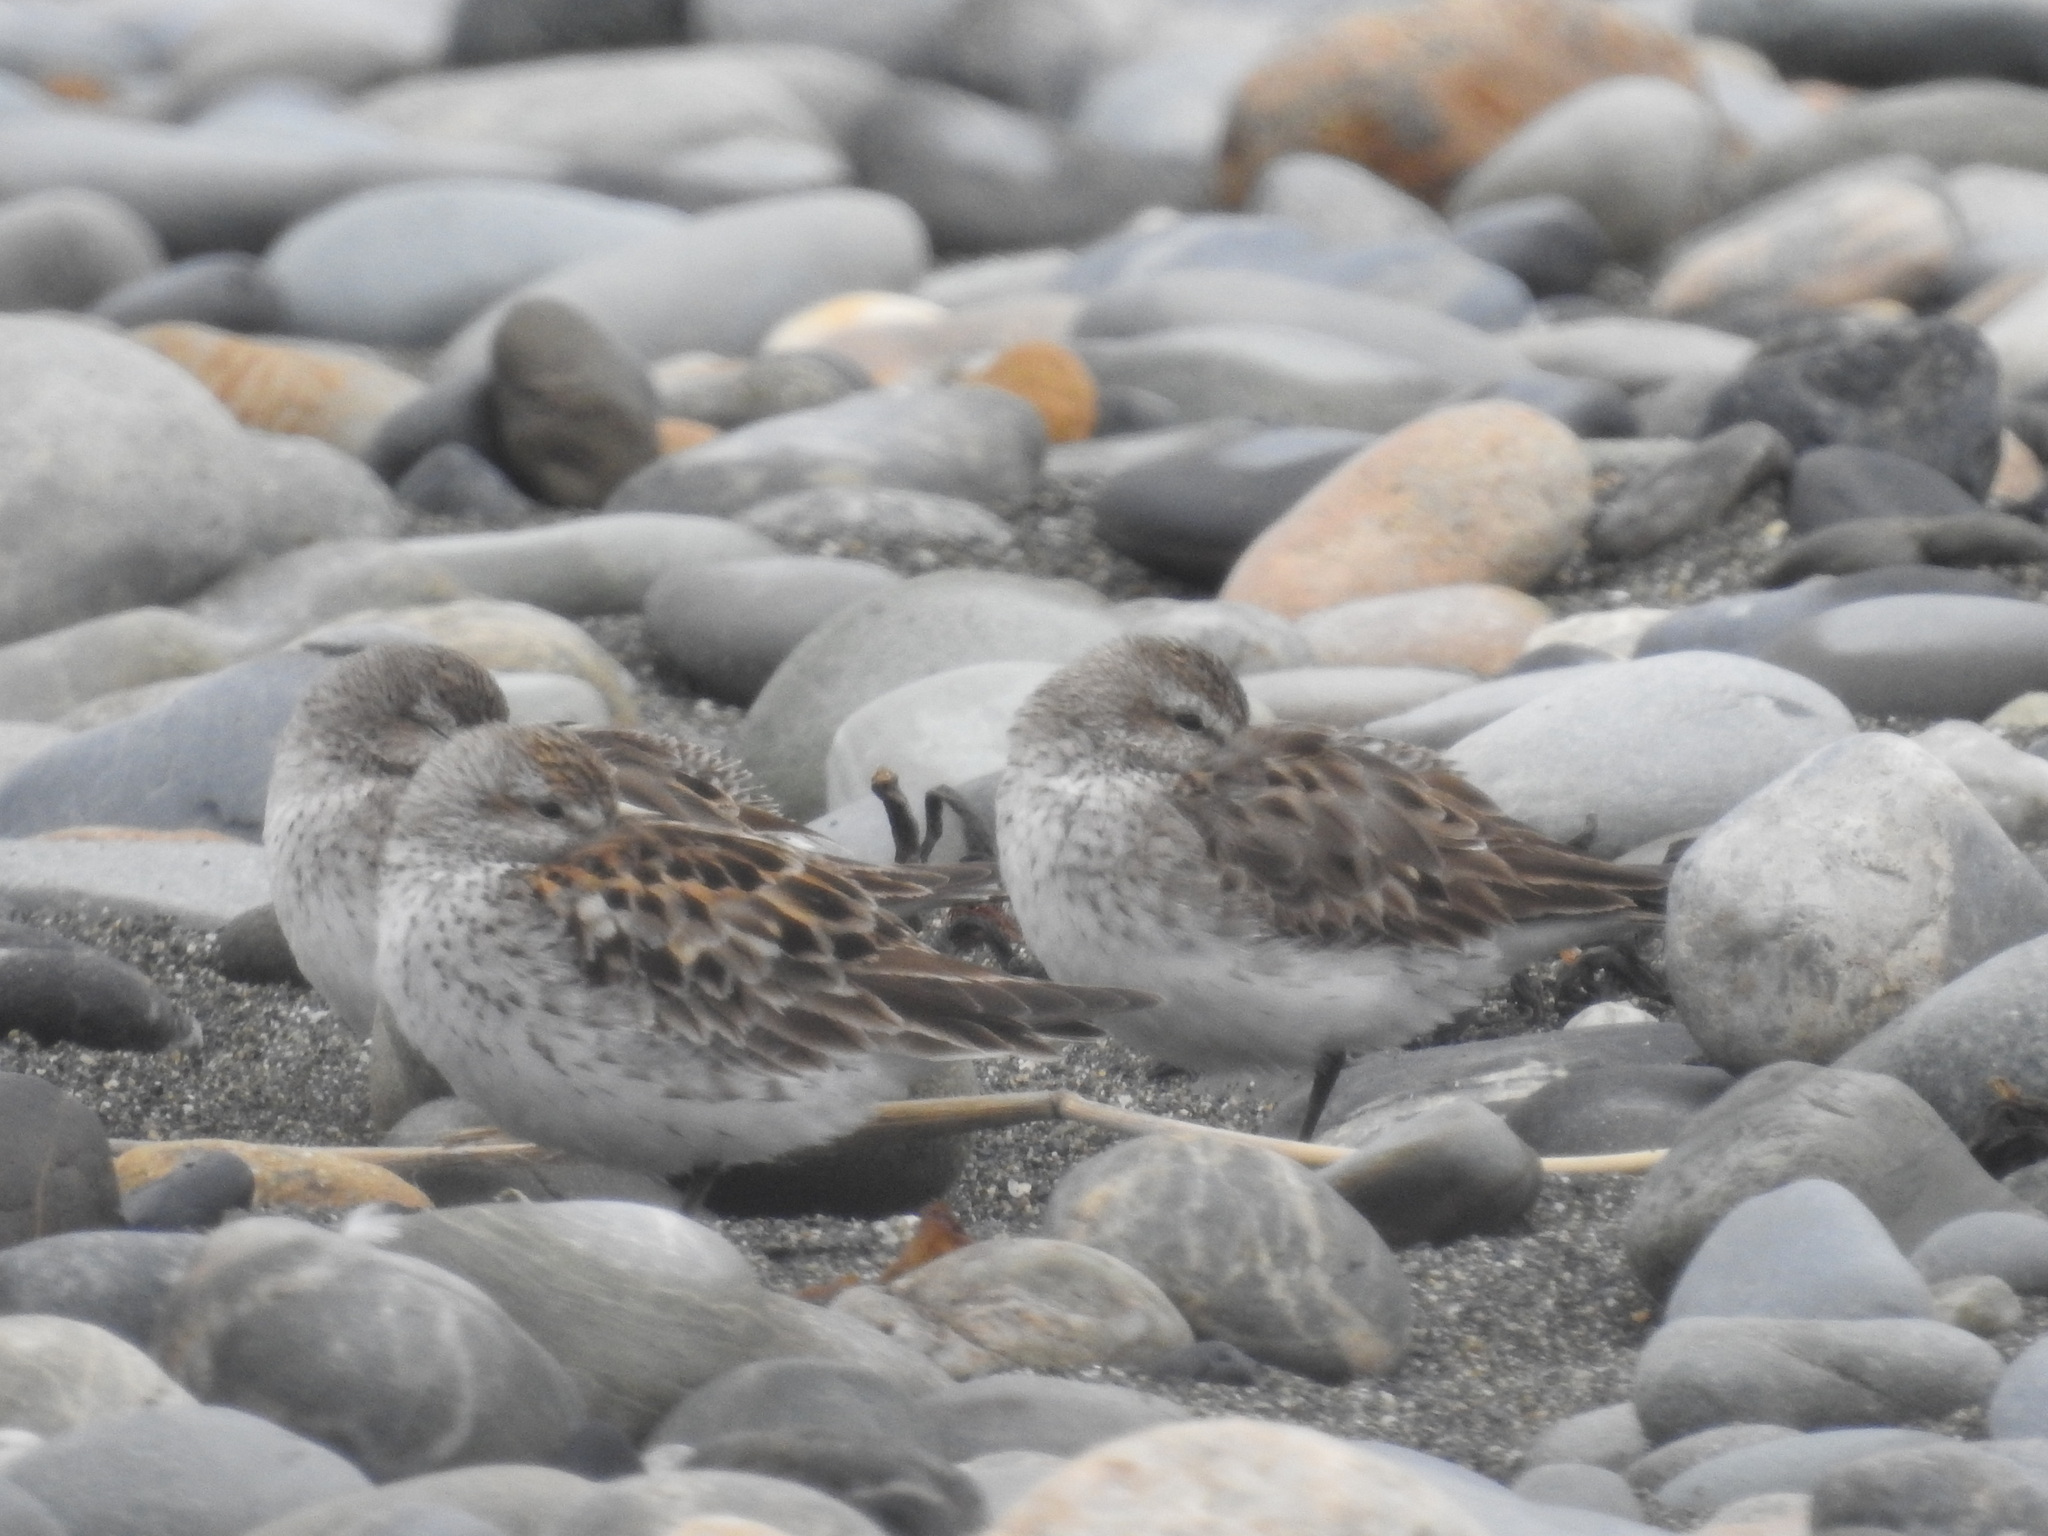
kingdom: Animalia
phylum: Chordata
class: Aves
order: Charadriiformes
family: Scolopacidae
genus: Calidris
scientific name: Calidris fuscicollis
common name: White-rumped sandpiper
